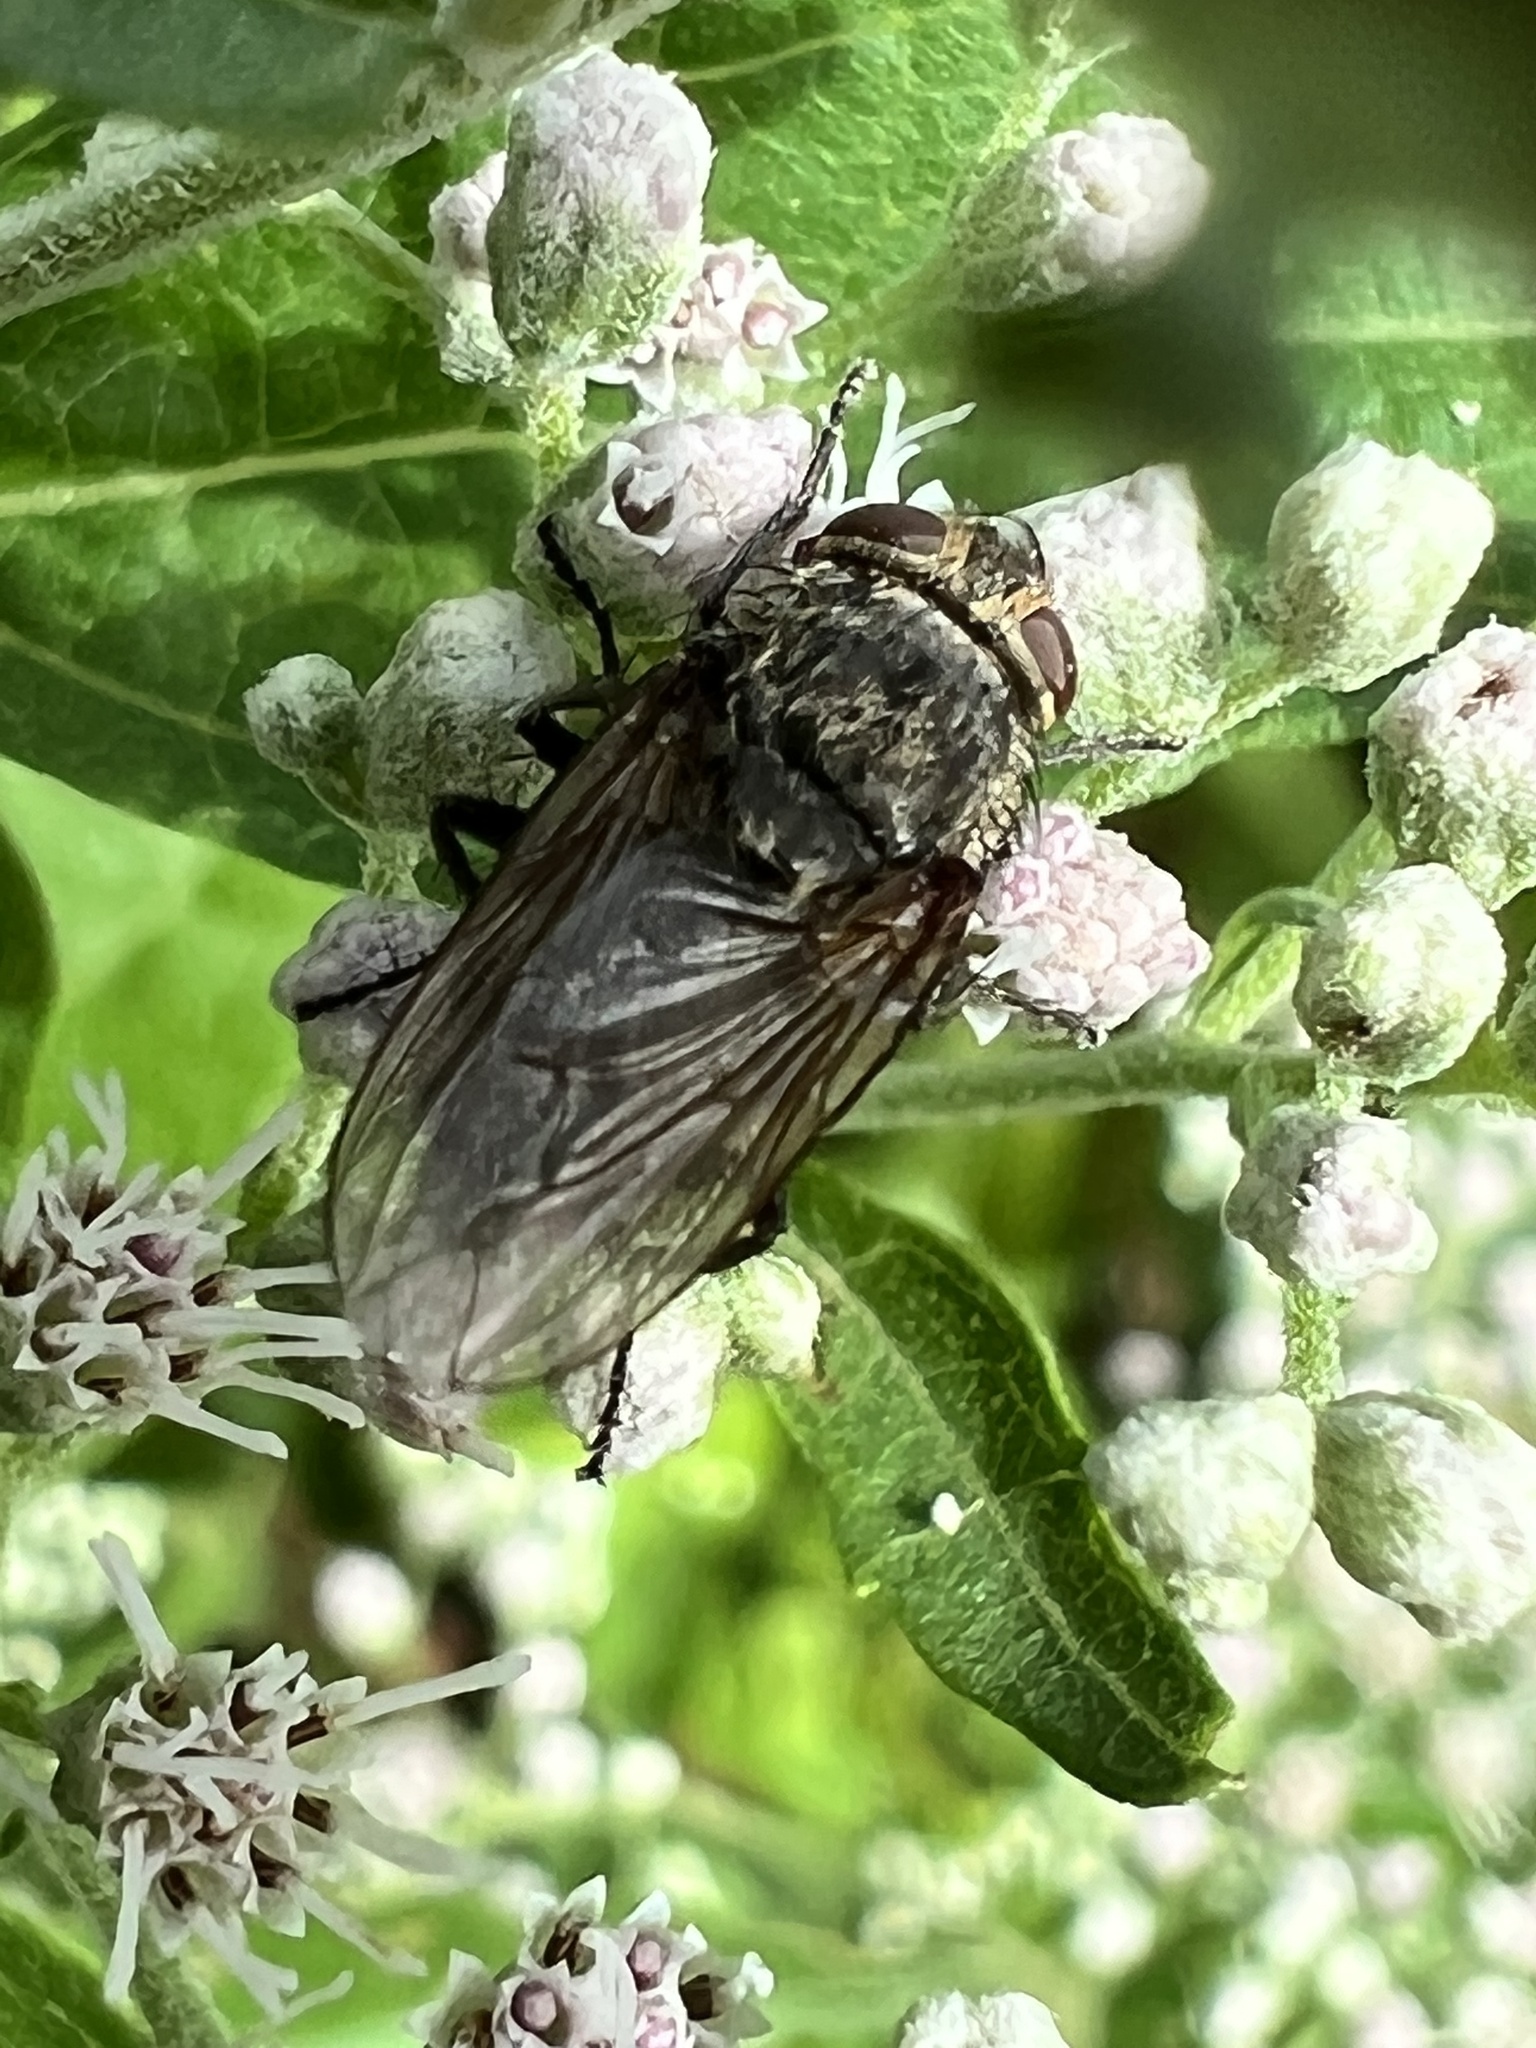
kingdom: Animalia
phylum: Arthropoda
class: Insecta
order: Diptera
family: Polleniidae
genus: Pollenia
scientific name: Pollenia
